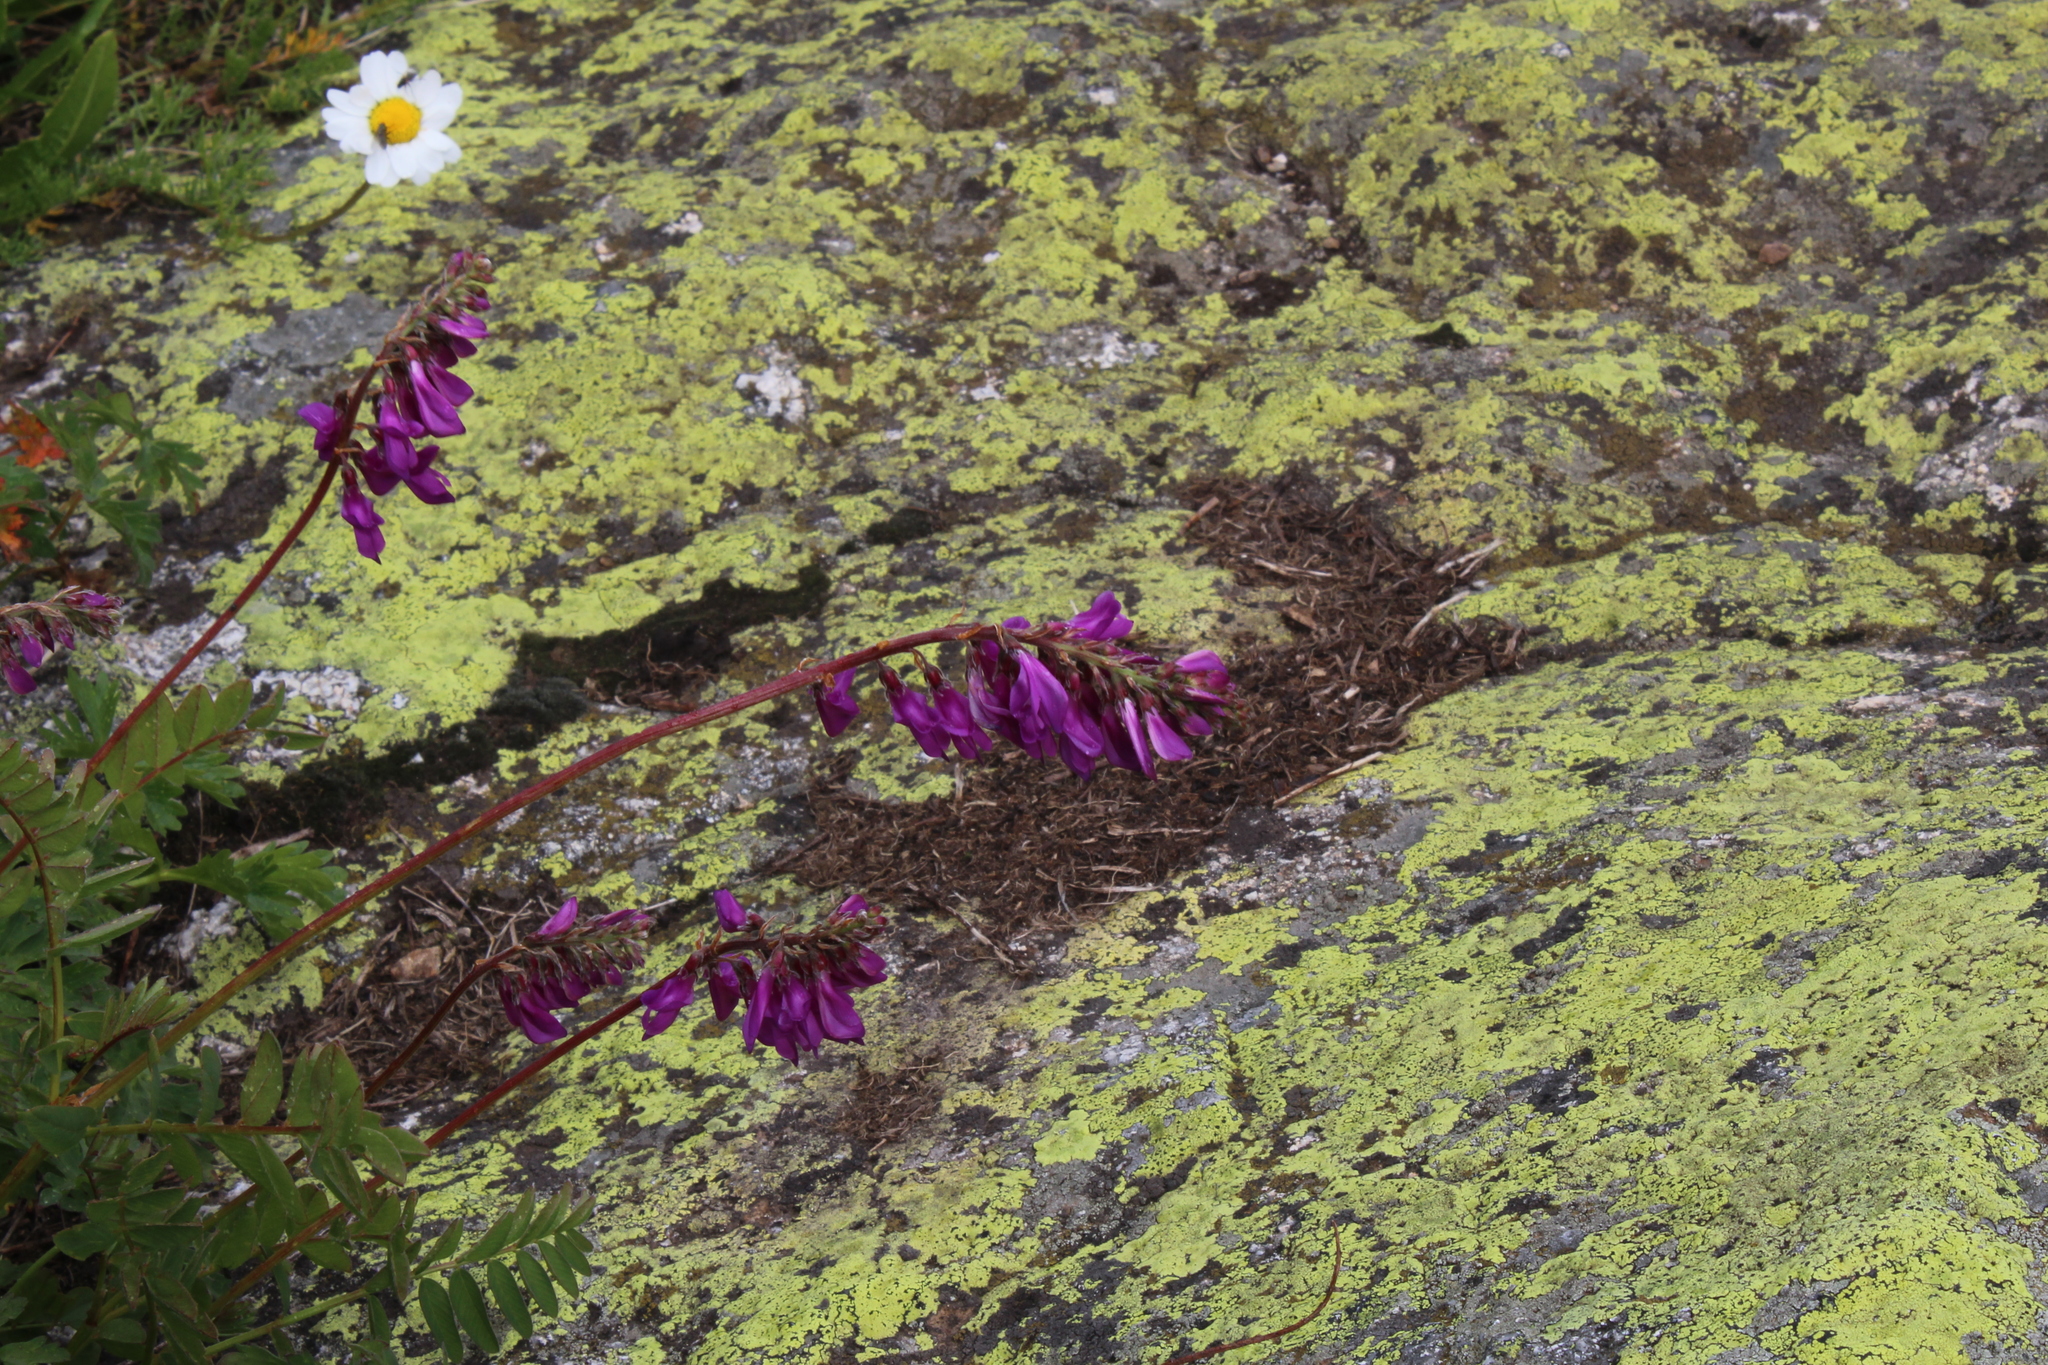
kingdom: Plantae
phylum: Tracheophyta
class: Magnoliopsida
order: Fabales
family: Fabaceae
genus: Hedysarum
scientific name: Hedysarum caucasicum
